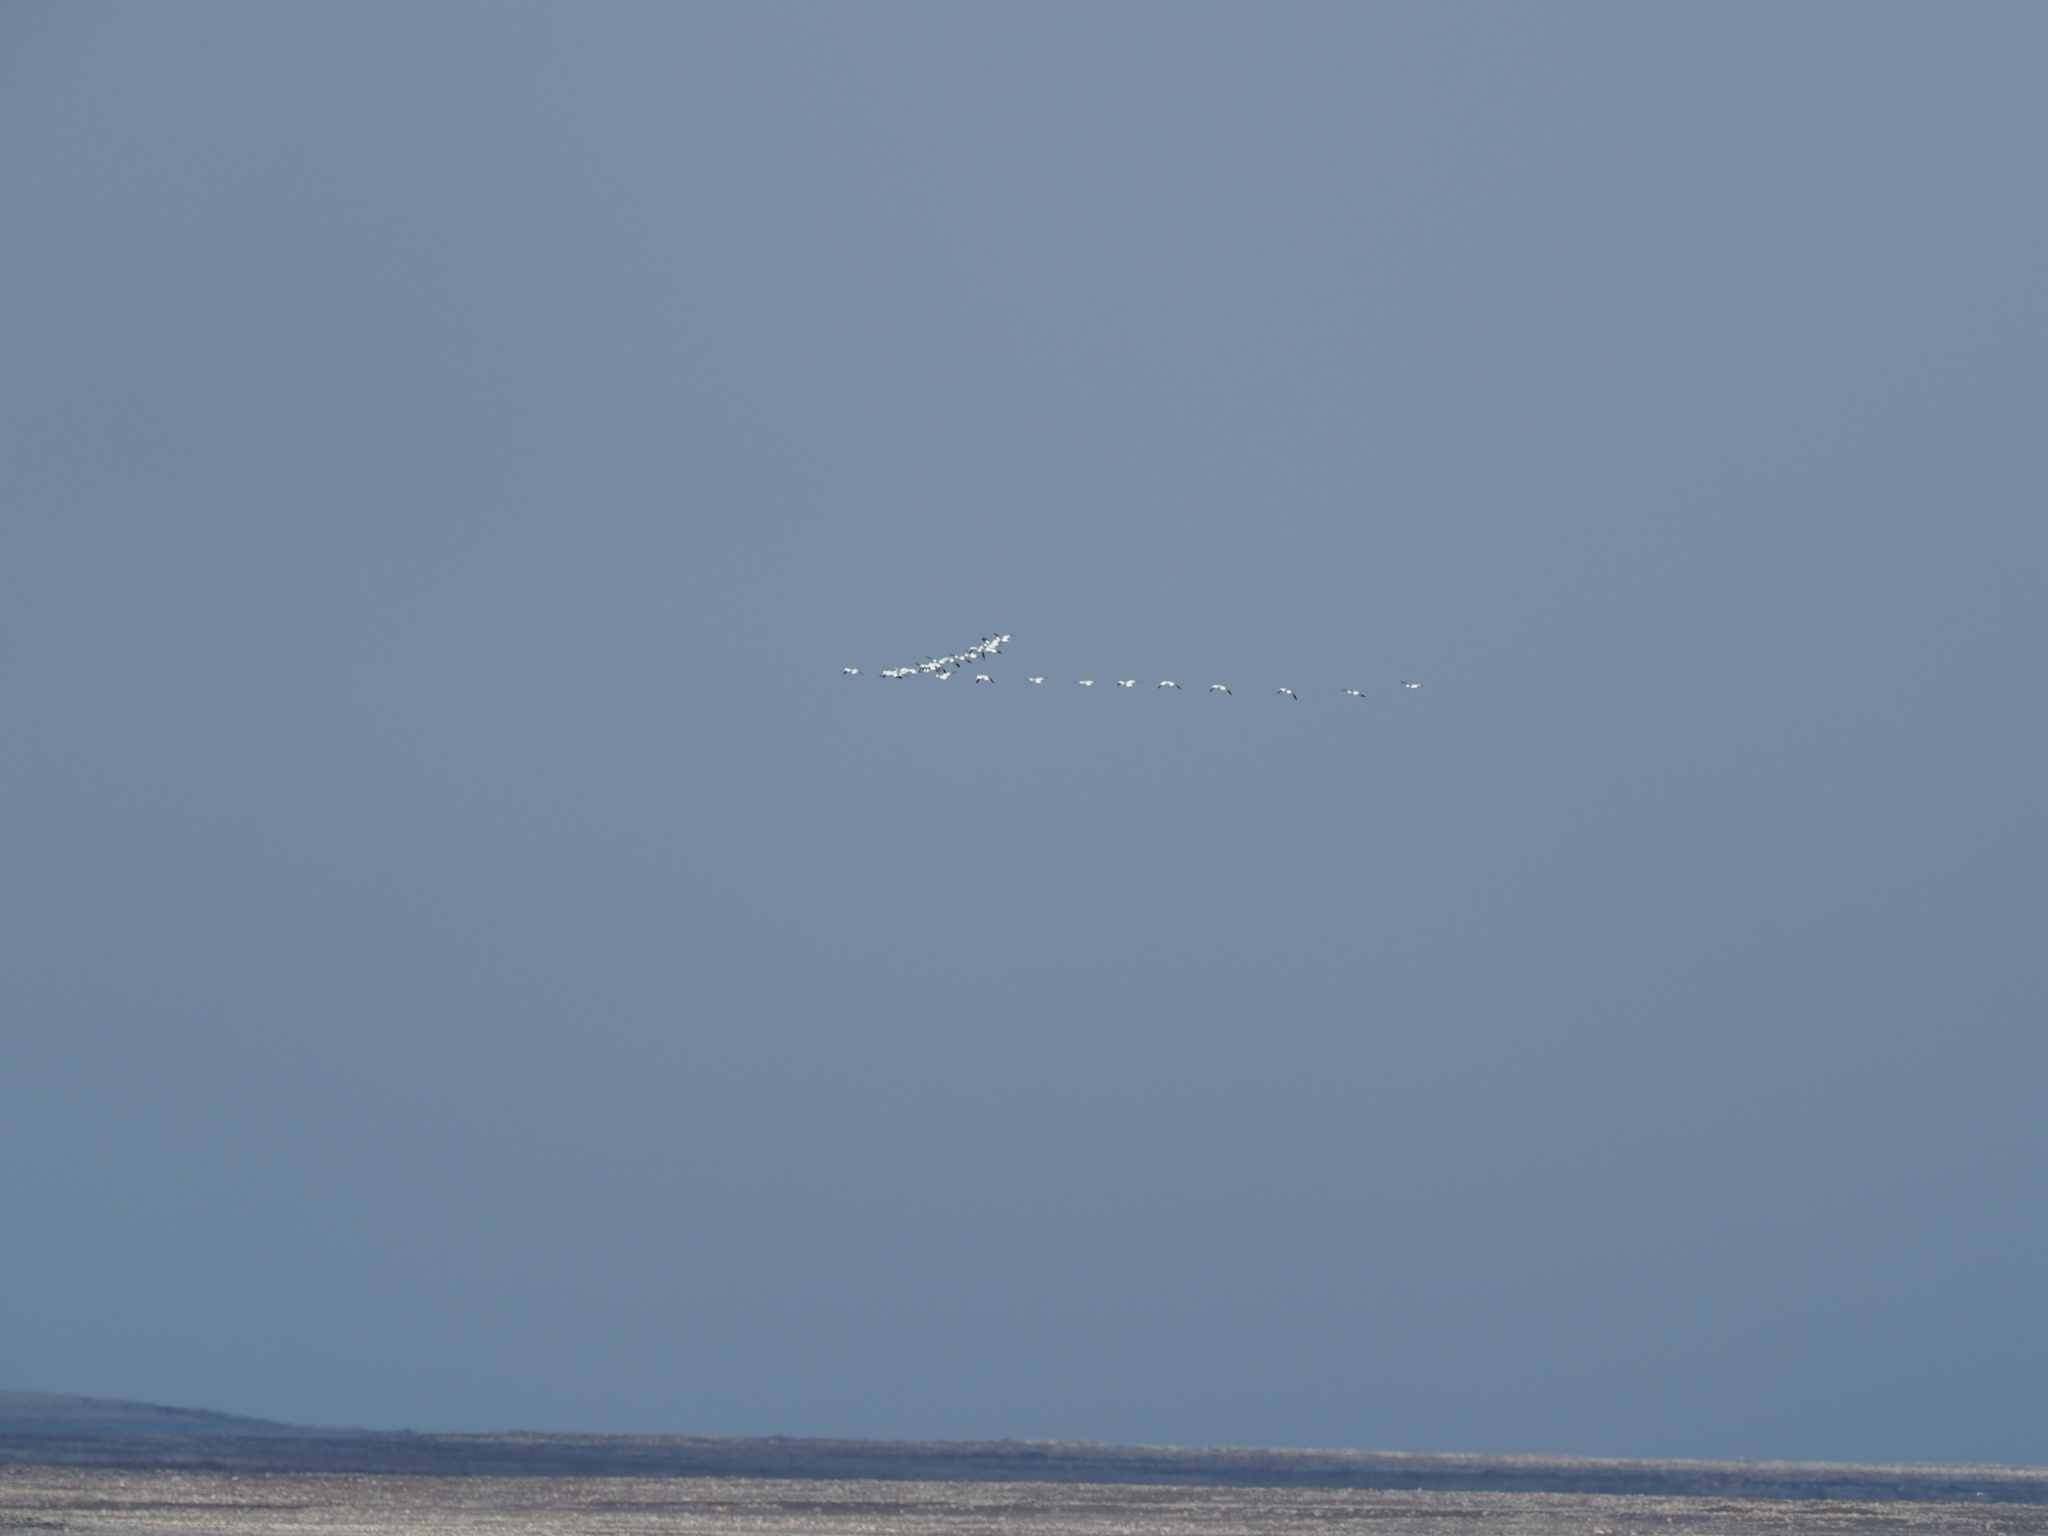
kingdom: Animalia
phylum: Chordata
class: Aves
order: Anseriformes
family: Anatidae
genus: Anser
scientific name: Anser caerulescens
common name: Snow goose
